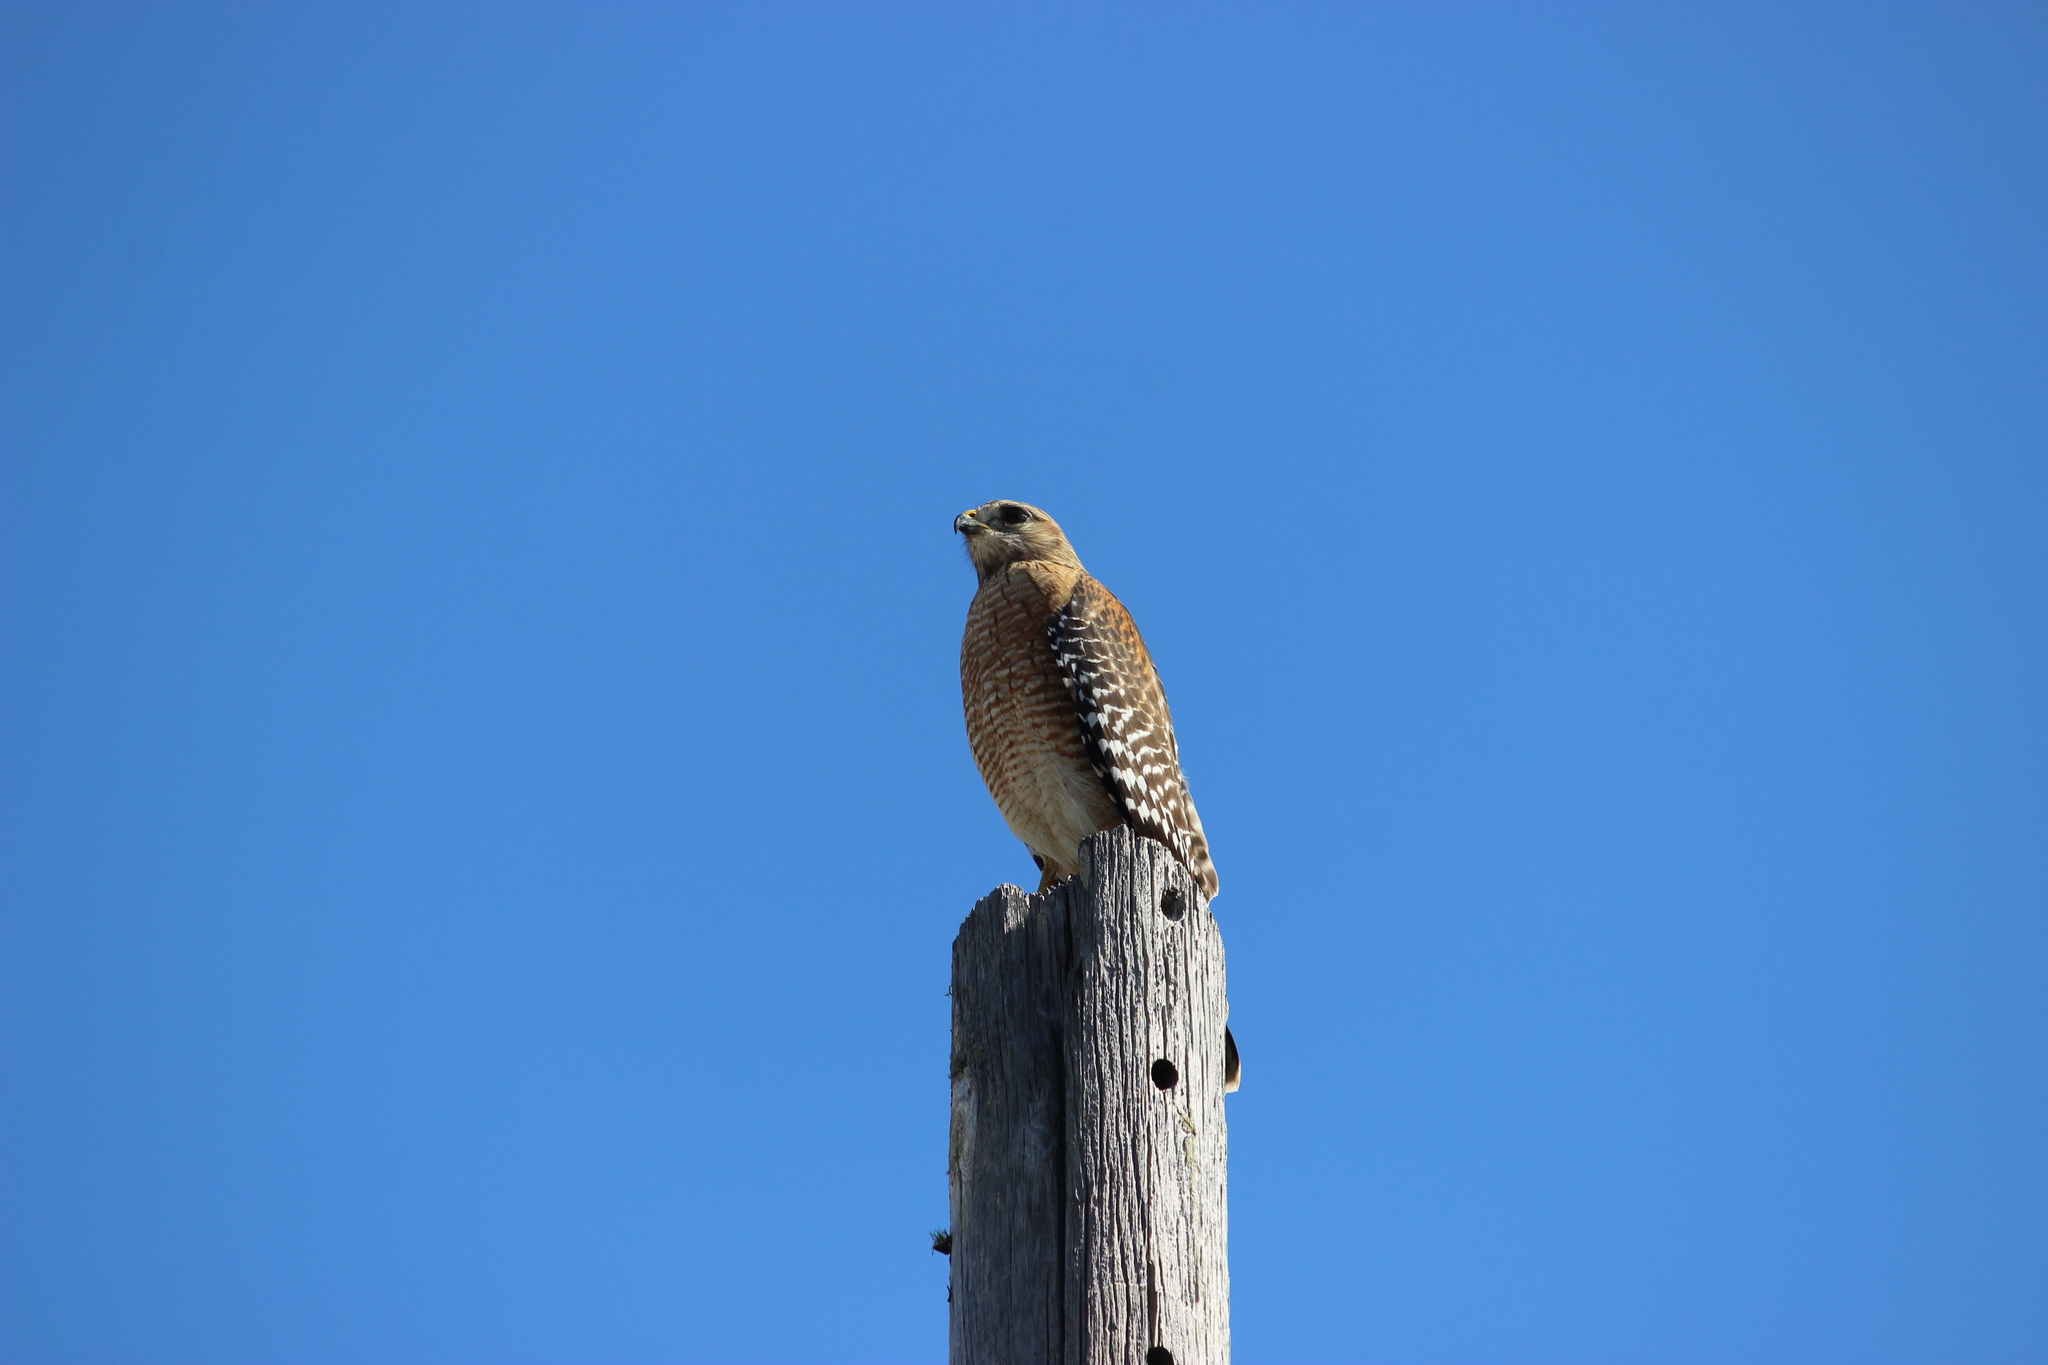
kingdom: Animalia
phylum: Chordata
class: Aves
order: Accipitriformes
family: Accipitridae
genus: Buteo
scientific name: Buteo lineatus
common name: Red-shouldered hawk
